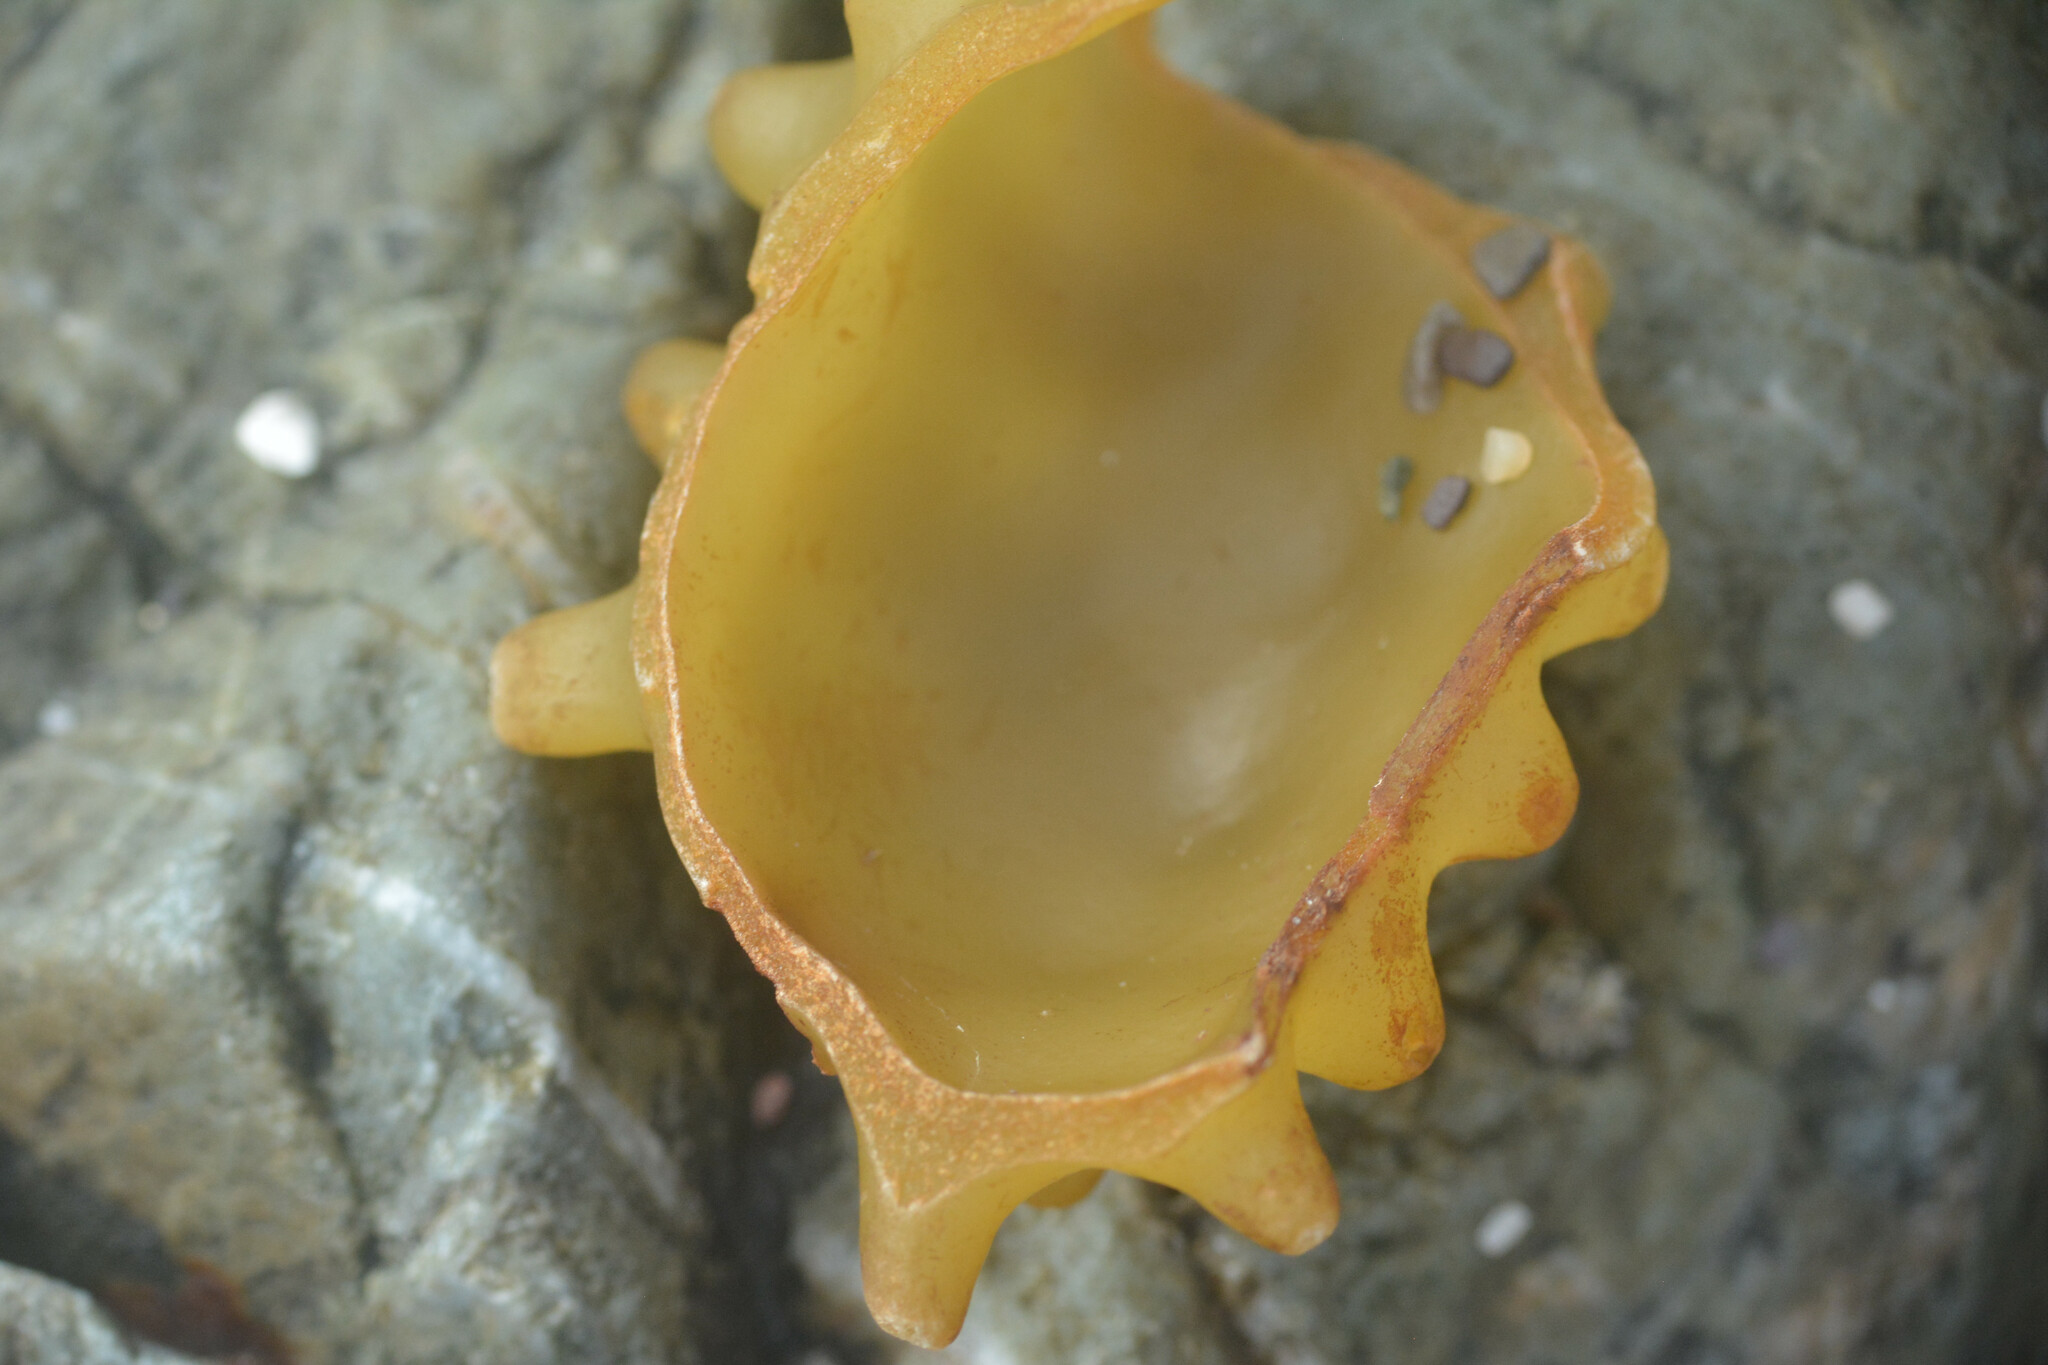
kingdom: Chromista
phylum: Ochrophyta
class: Phaeophyceae
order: Tilopteridales
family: Phyllariaceae
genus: Saccorhiza
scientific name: Saccorhiza polyschides
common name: Furbelows
